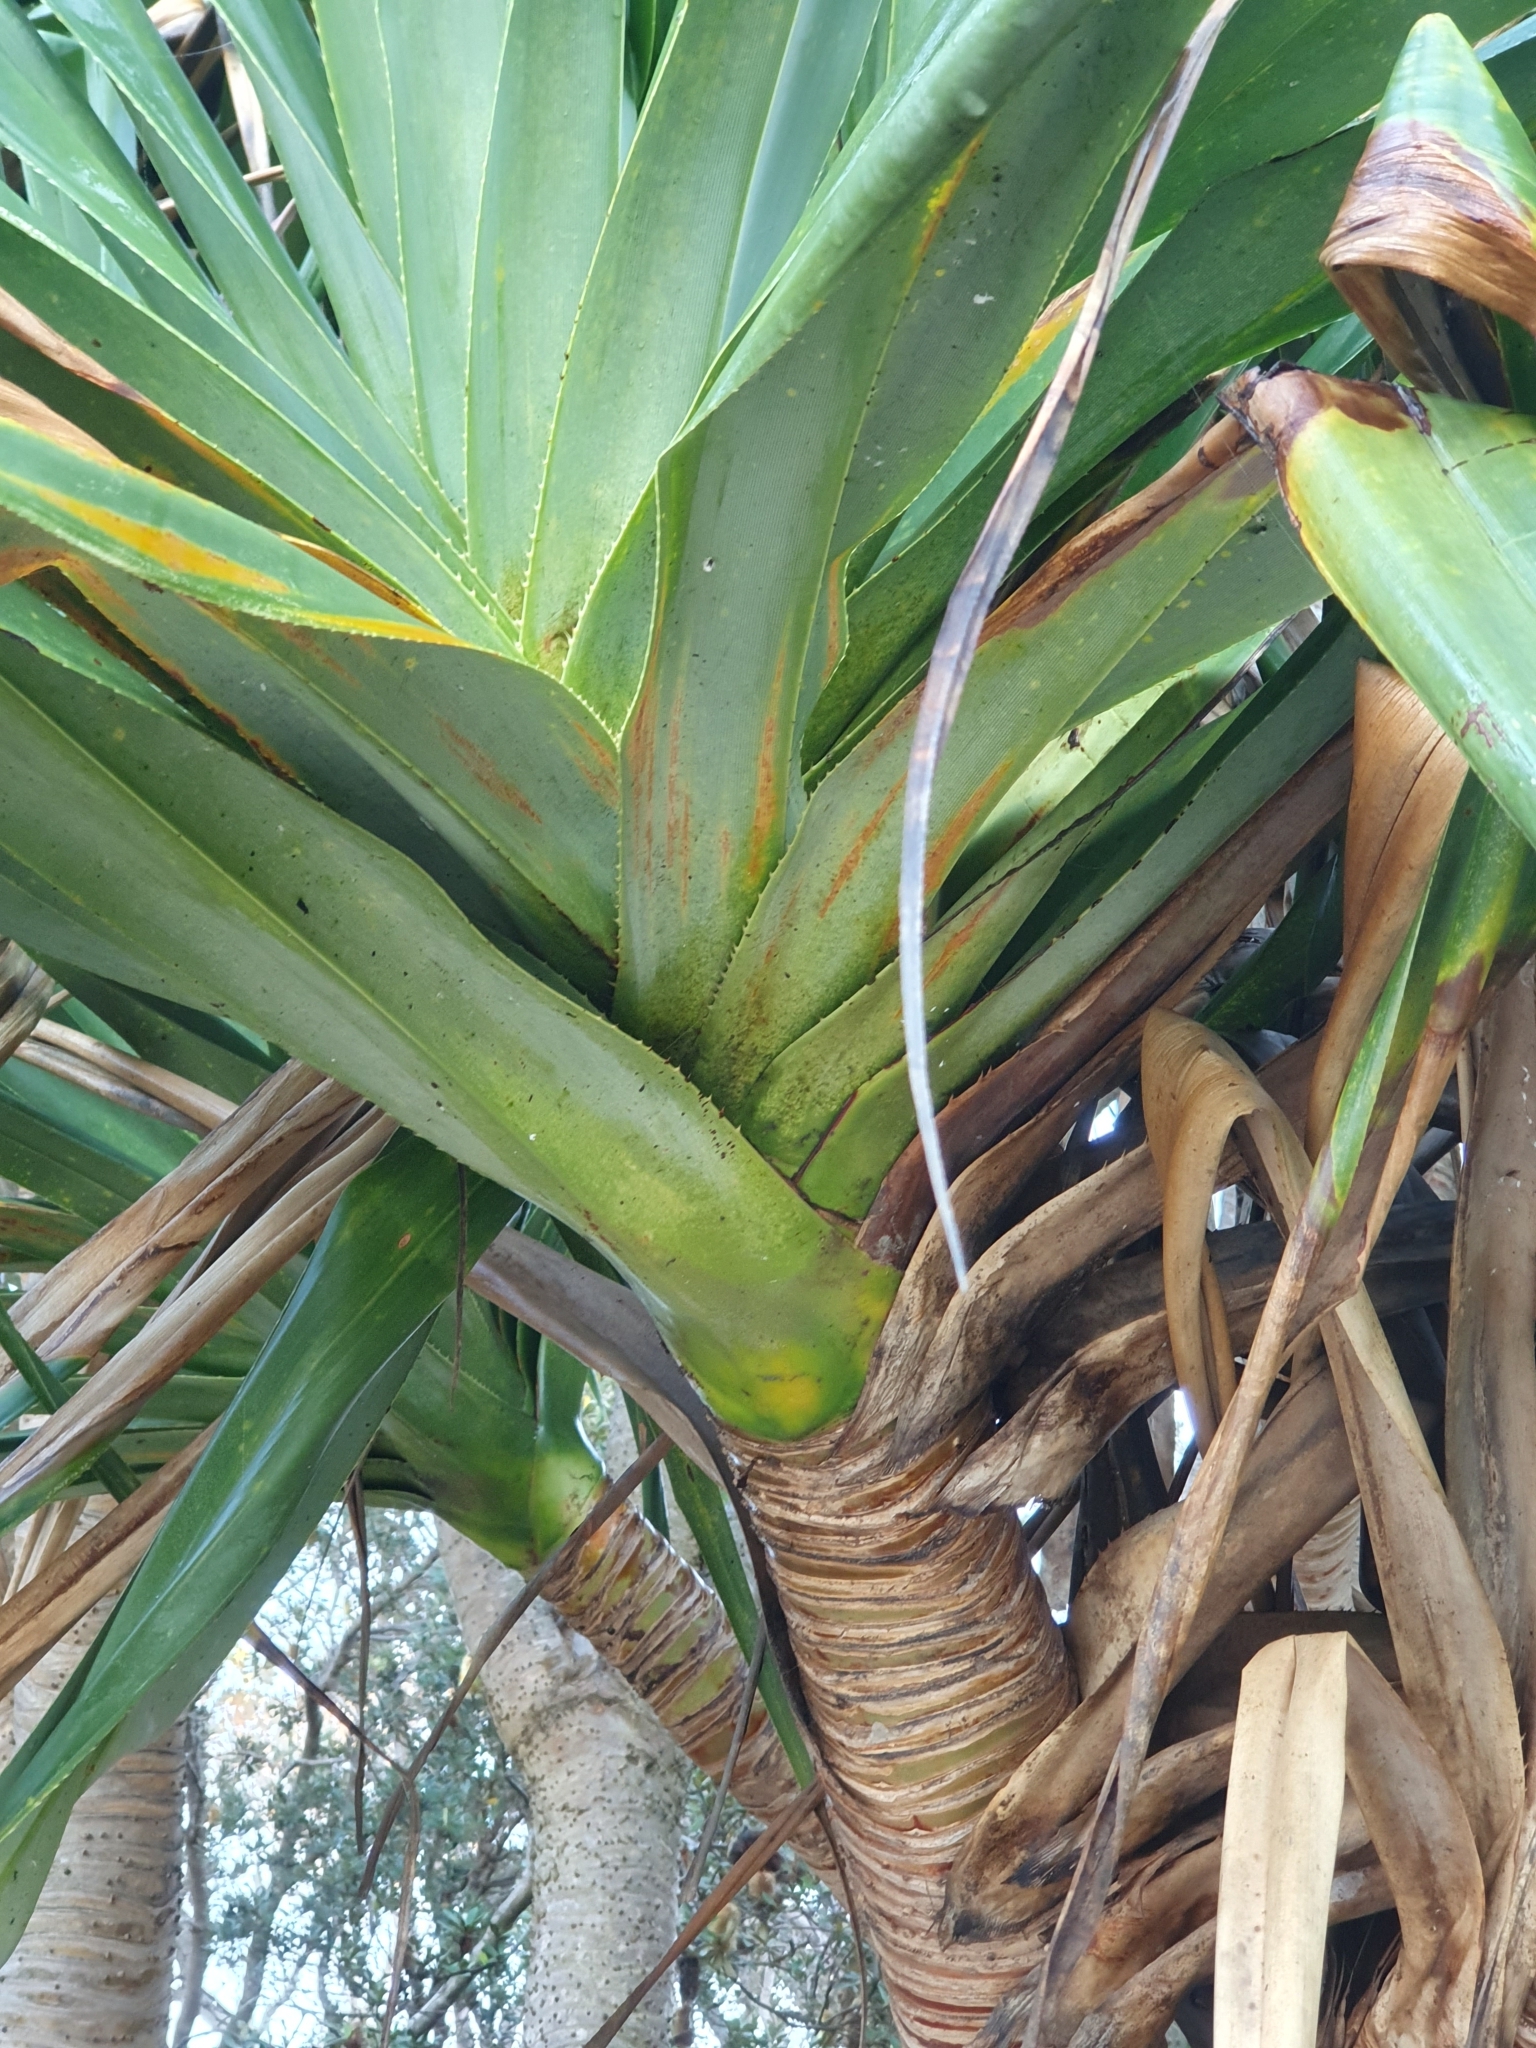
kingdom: Plantae
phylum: Tracheophyta
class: Liliopsida
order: Pandanales
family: Pandanaceae
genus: Pandanus
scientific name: Pandanus tectorius
